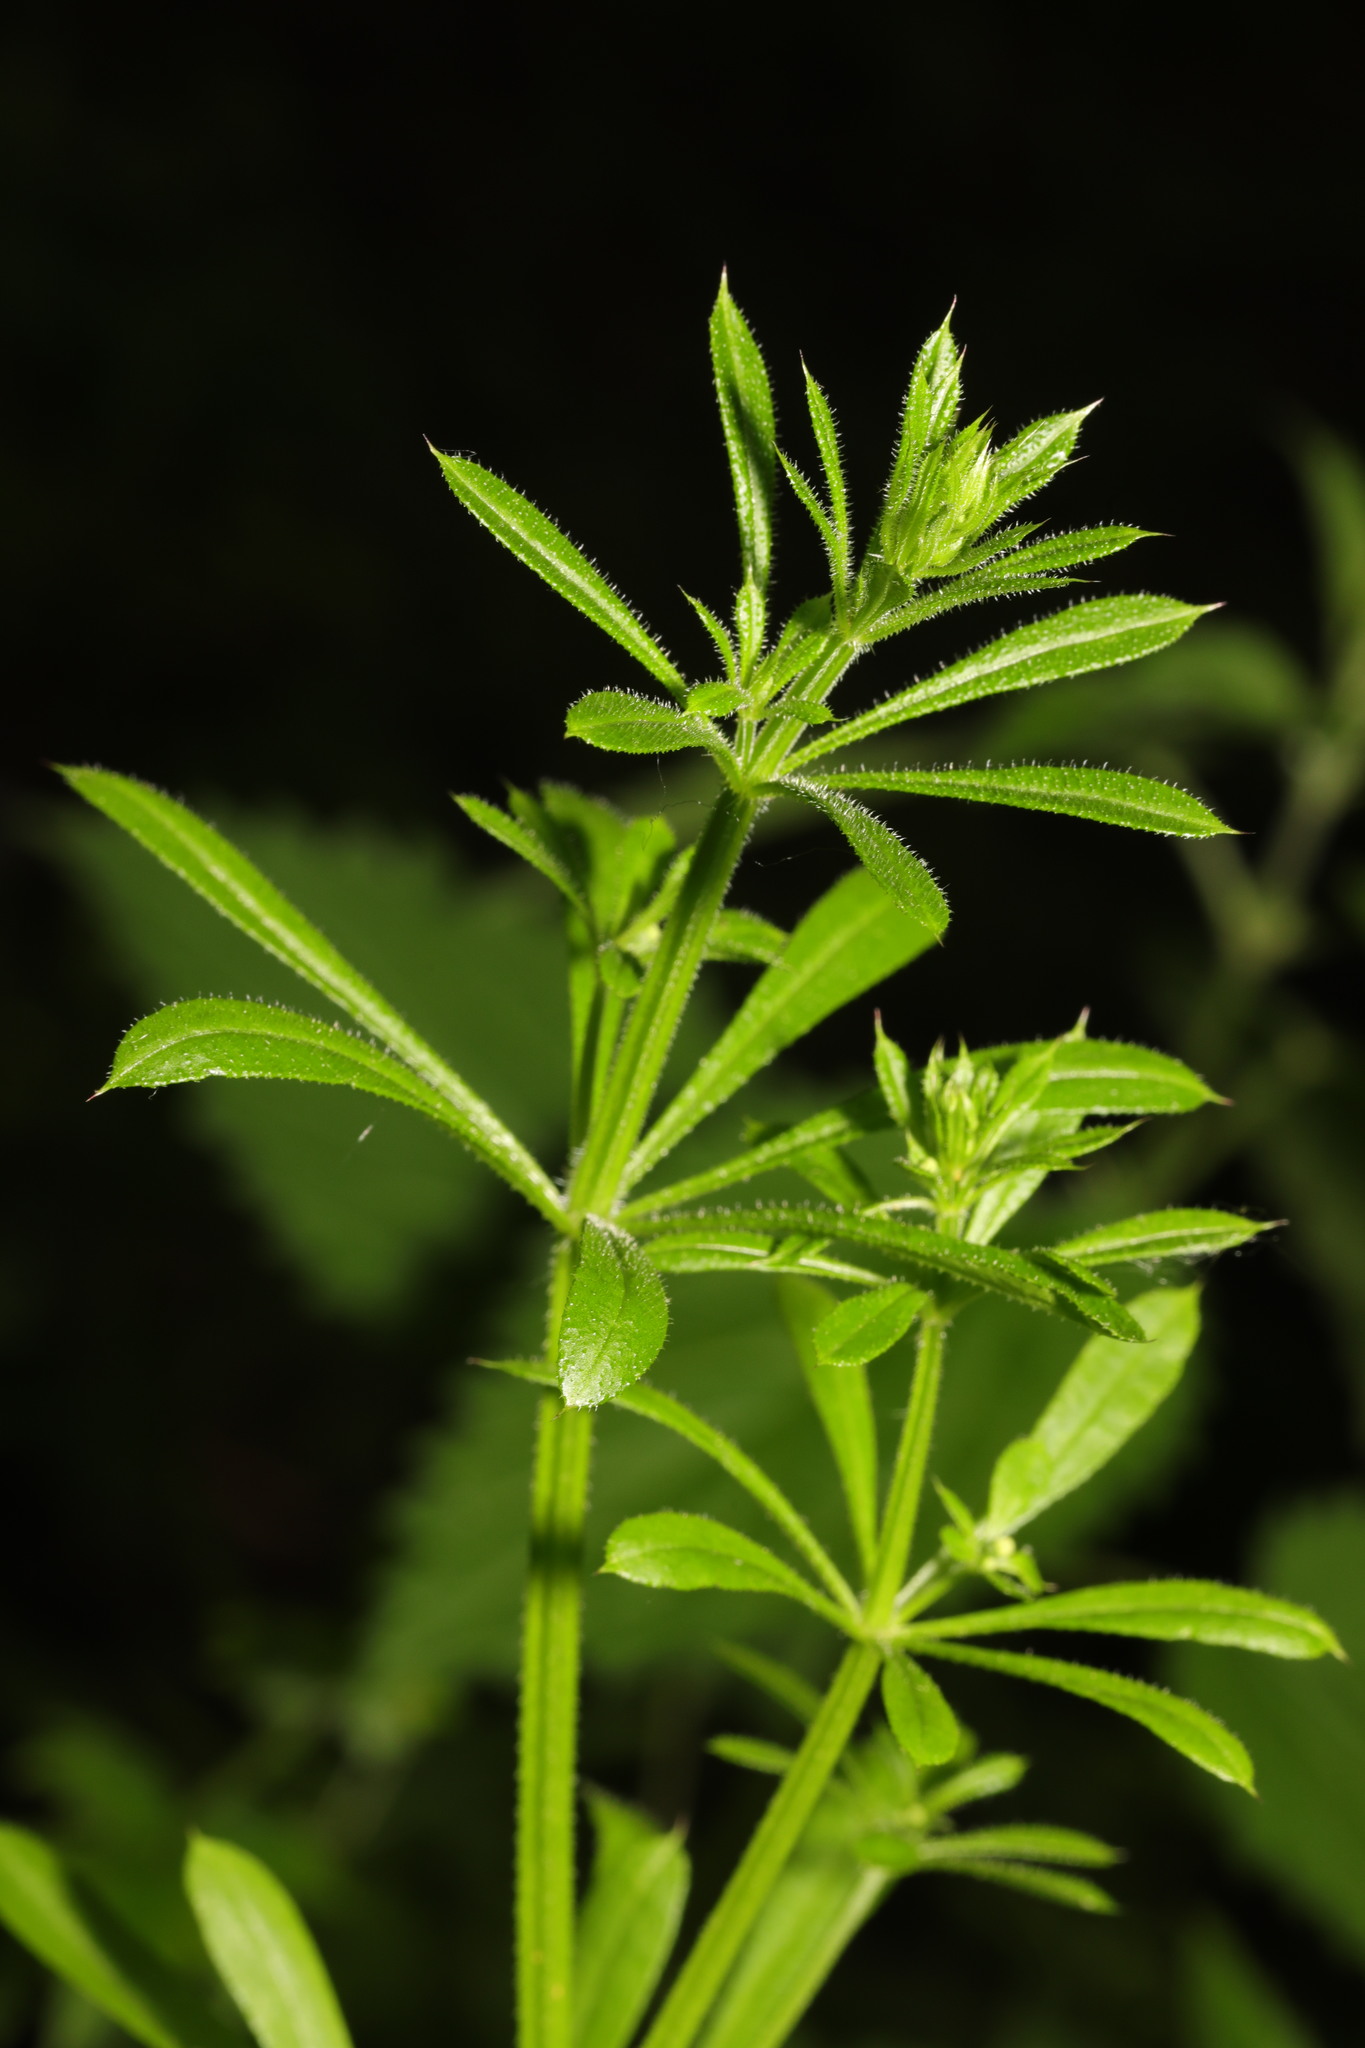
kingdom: Plantae
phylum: Tracheophyta
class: Magnoliopsida
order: Gentianales
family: Rubiaceae
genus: Galium
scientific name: Galium aparine
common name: Cleavers
